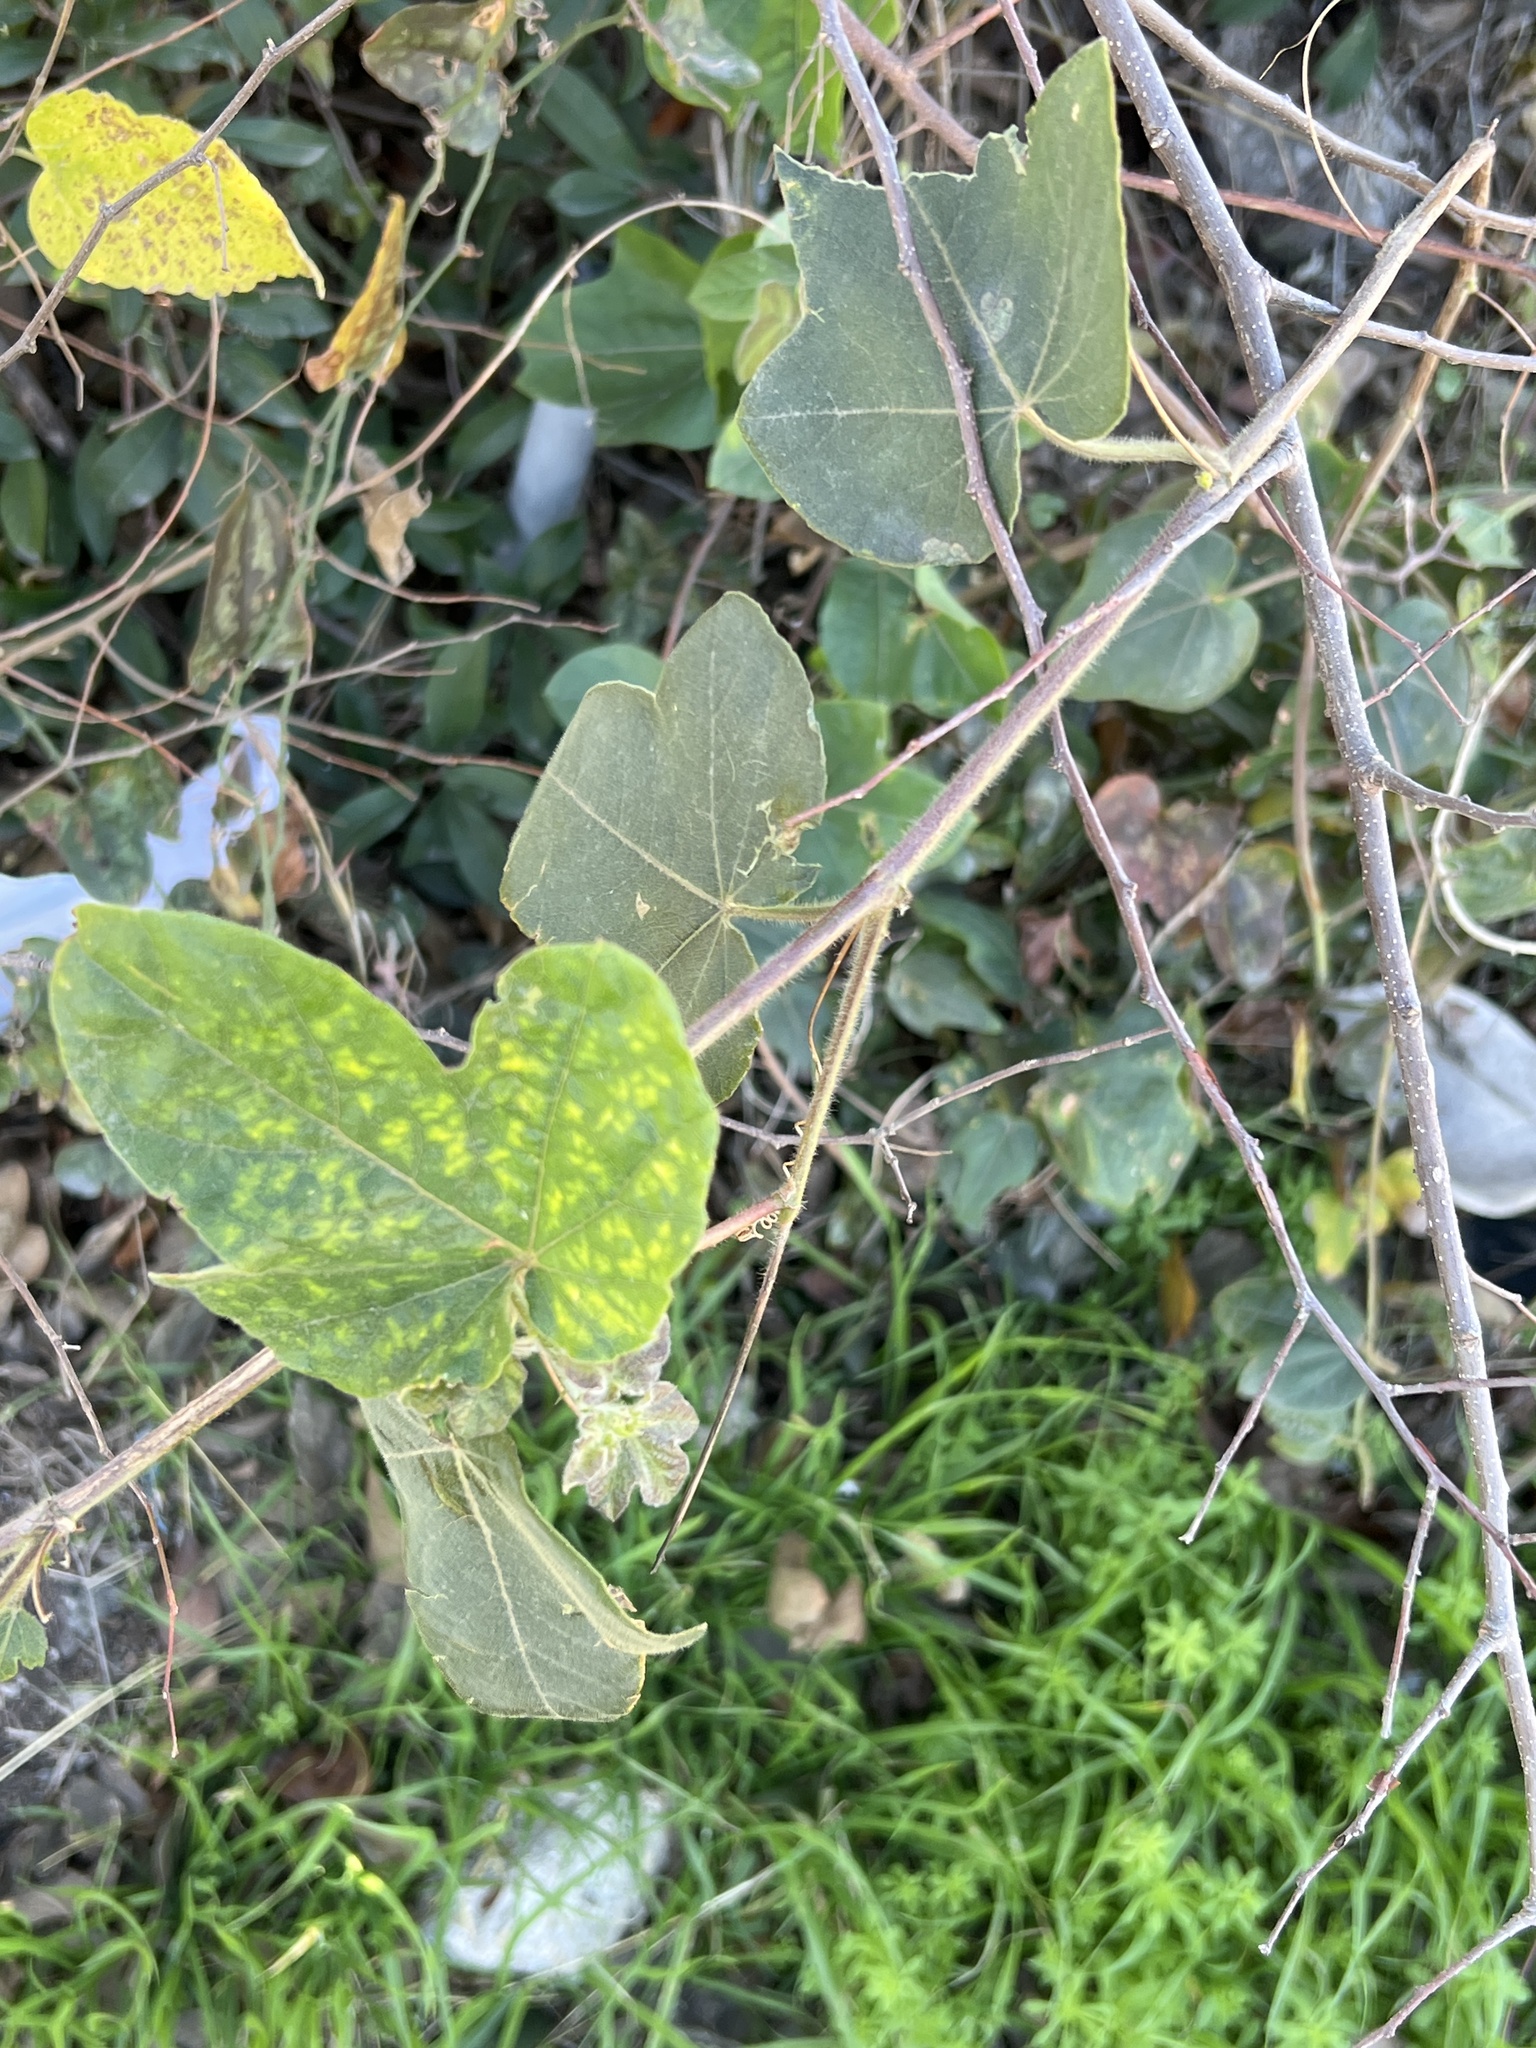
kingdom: Plantae
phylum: Tracheophyta
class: Magnoliopsida
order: Malpighiales
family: Passifloraceae
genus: Passiflora
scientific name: Passiflora
